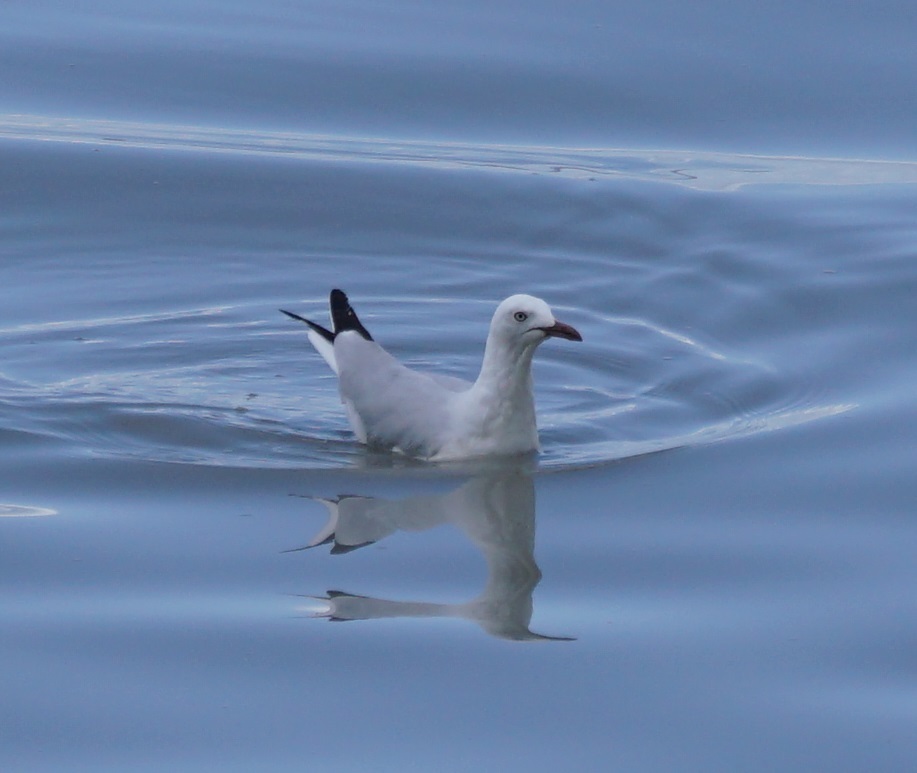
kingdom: Animalia
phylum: Chordata
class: Aves
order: Charadriiformes
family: Laridae
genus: Chroicocephalus
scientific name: Chroicocephalus novaehollandiae
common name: Silver gull
